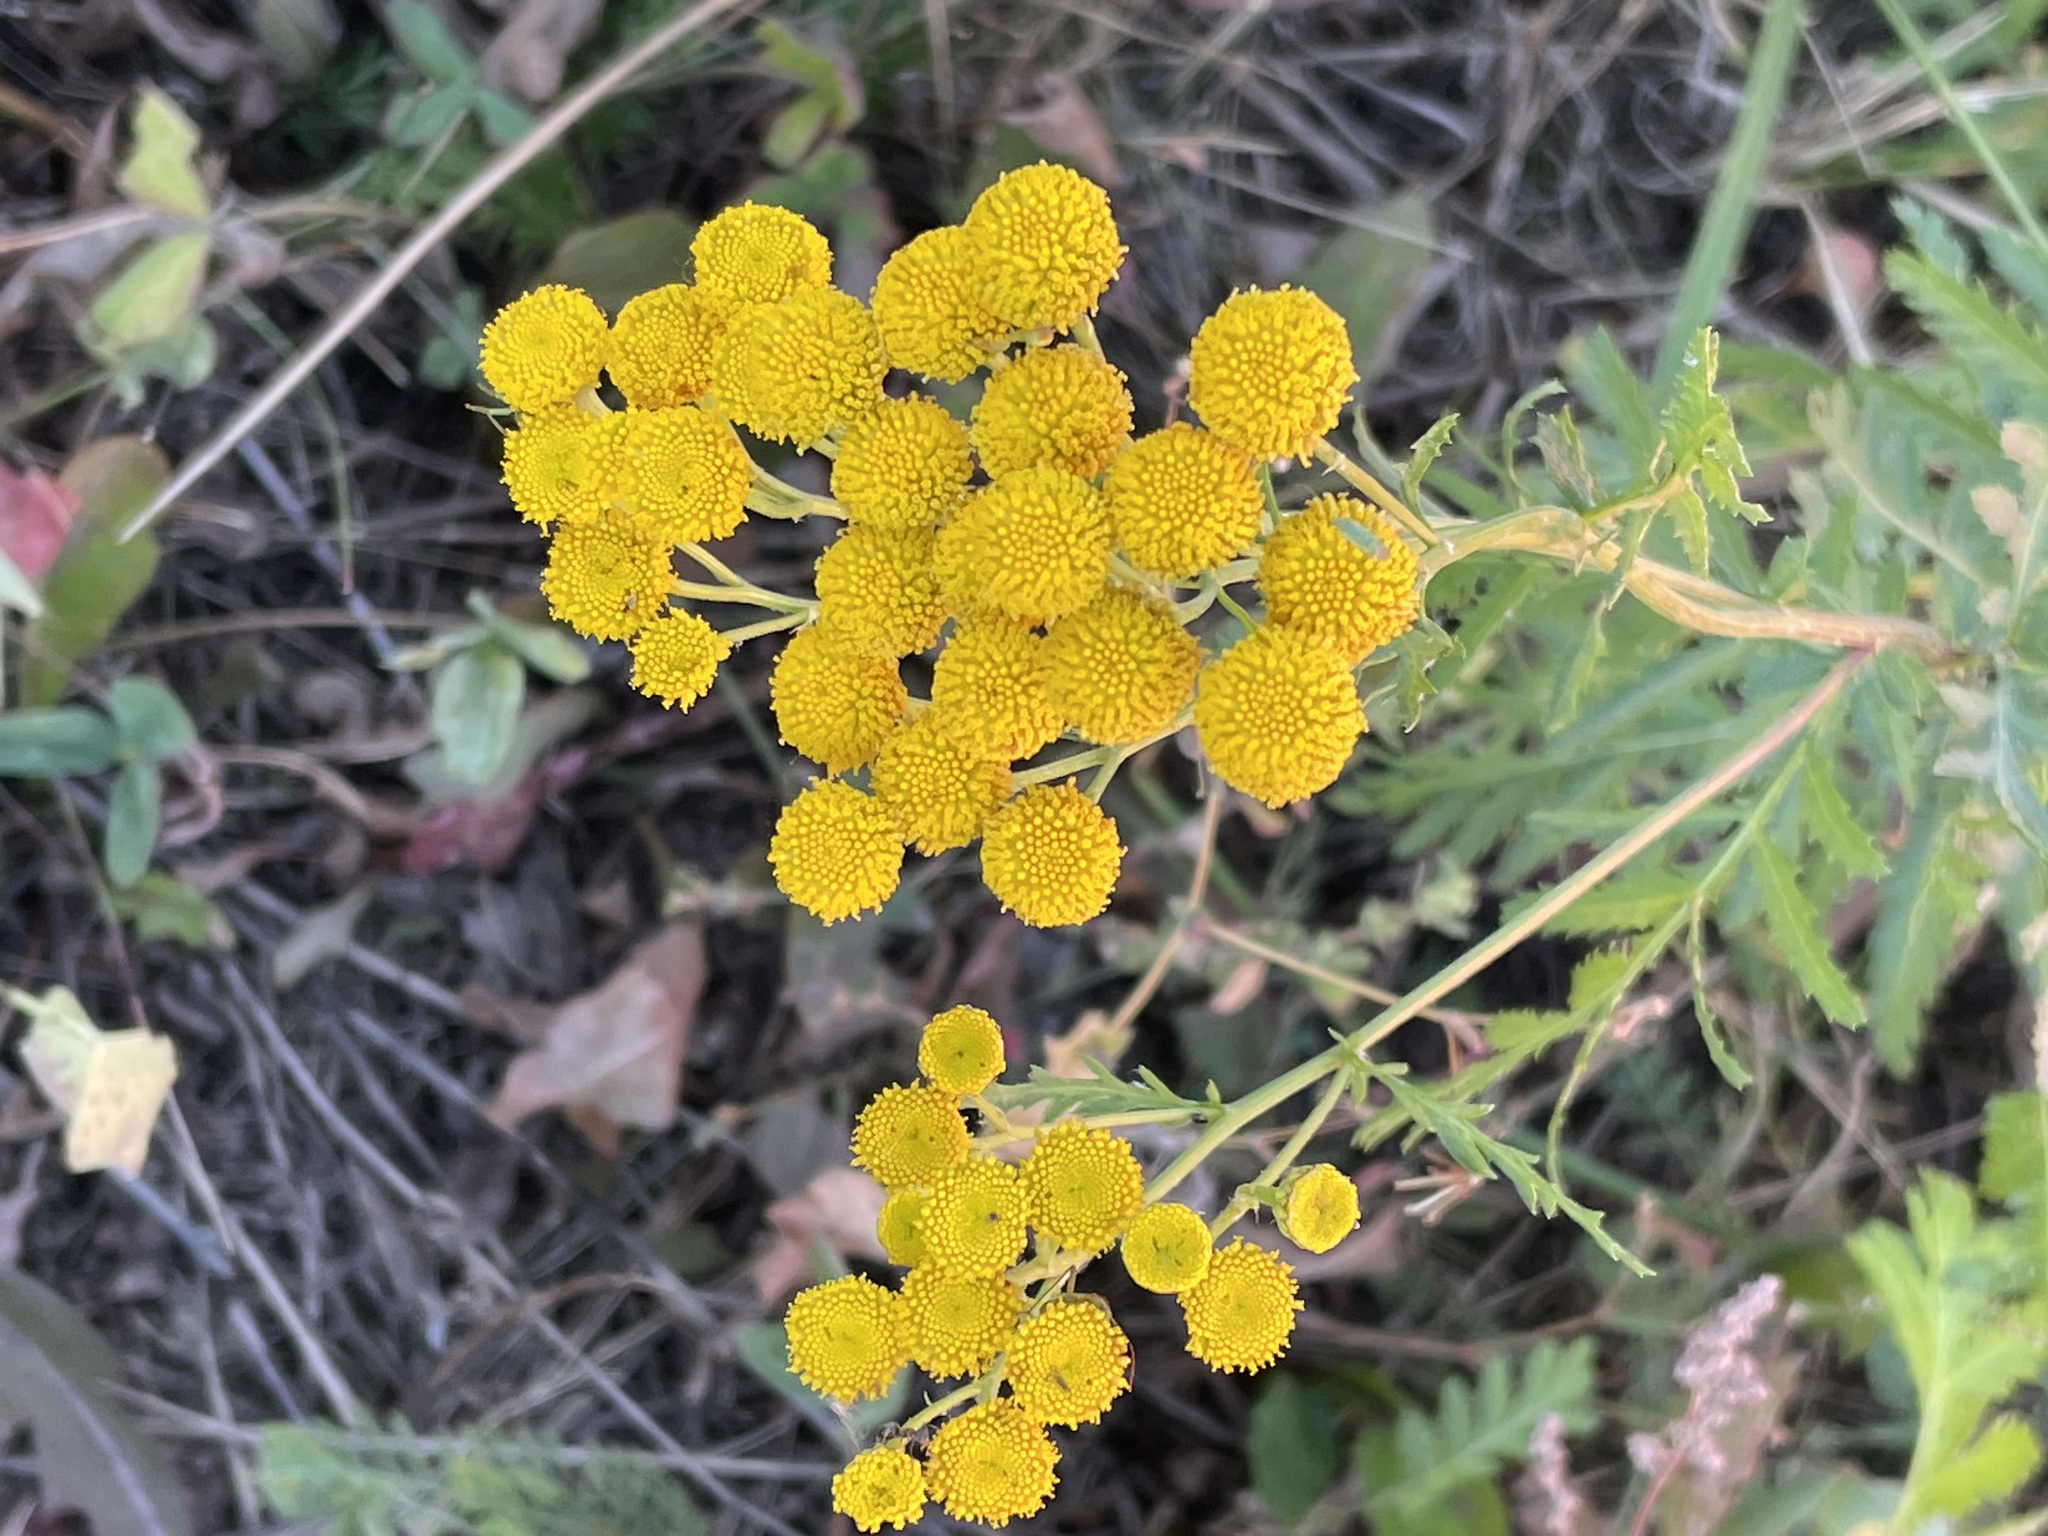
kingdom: Plantae
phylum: Tracheophyta
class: Magnoliopsida
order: Asterales
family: Asteraceae
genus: Tanacetum
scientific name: Tanacetum vulgare
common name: Common tansy
